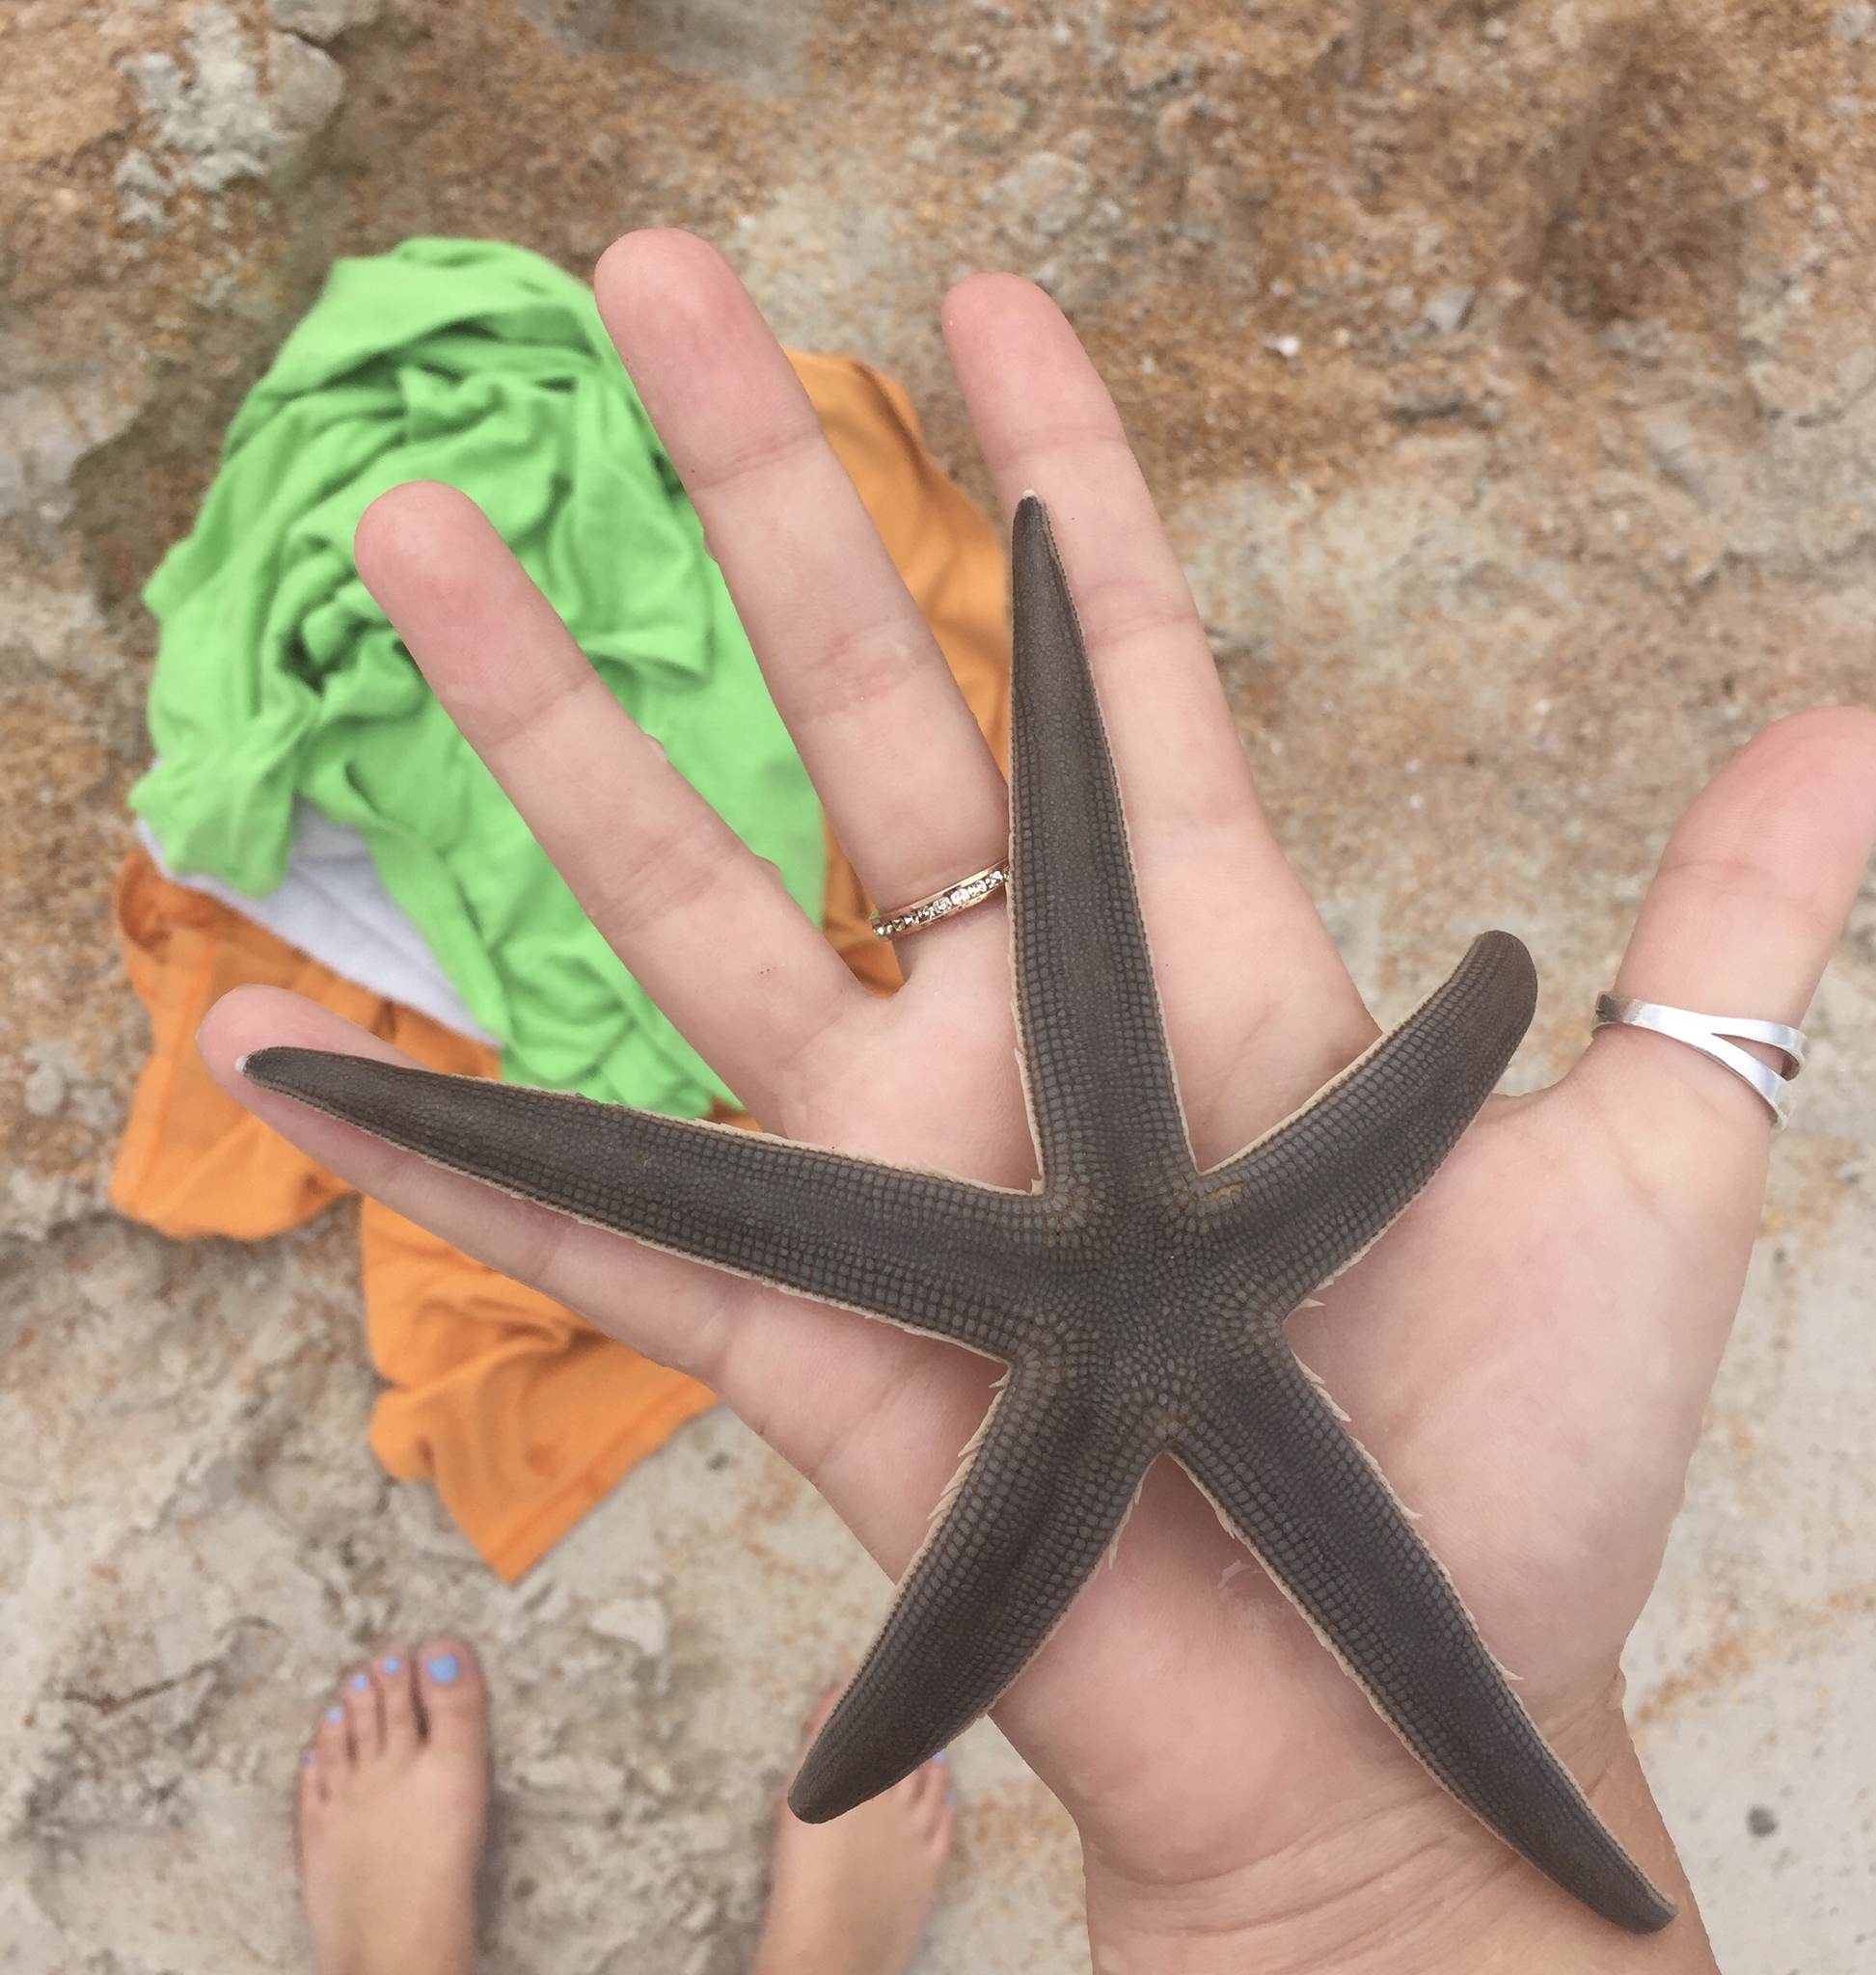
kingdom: Animalia
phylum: Echinodermata
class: Asteroidea
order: Paxillosida
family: Luidiidae
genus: Luidia
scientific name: Luidia clathrata
